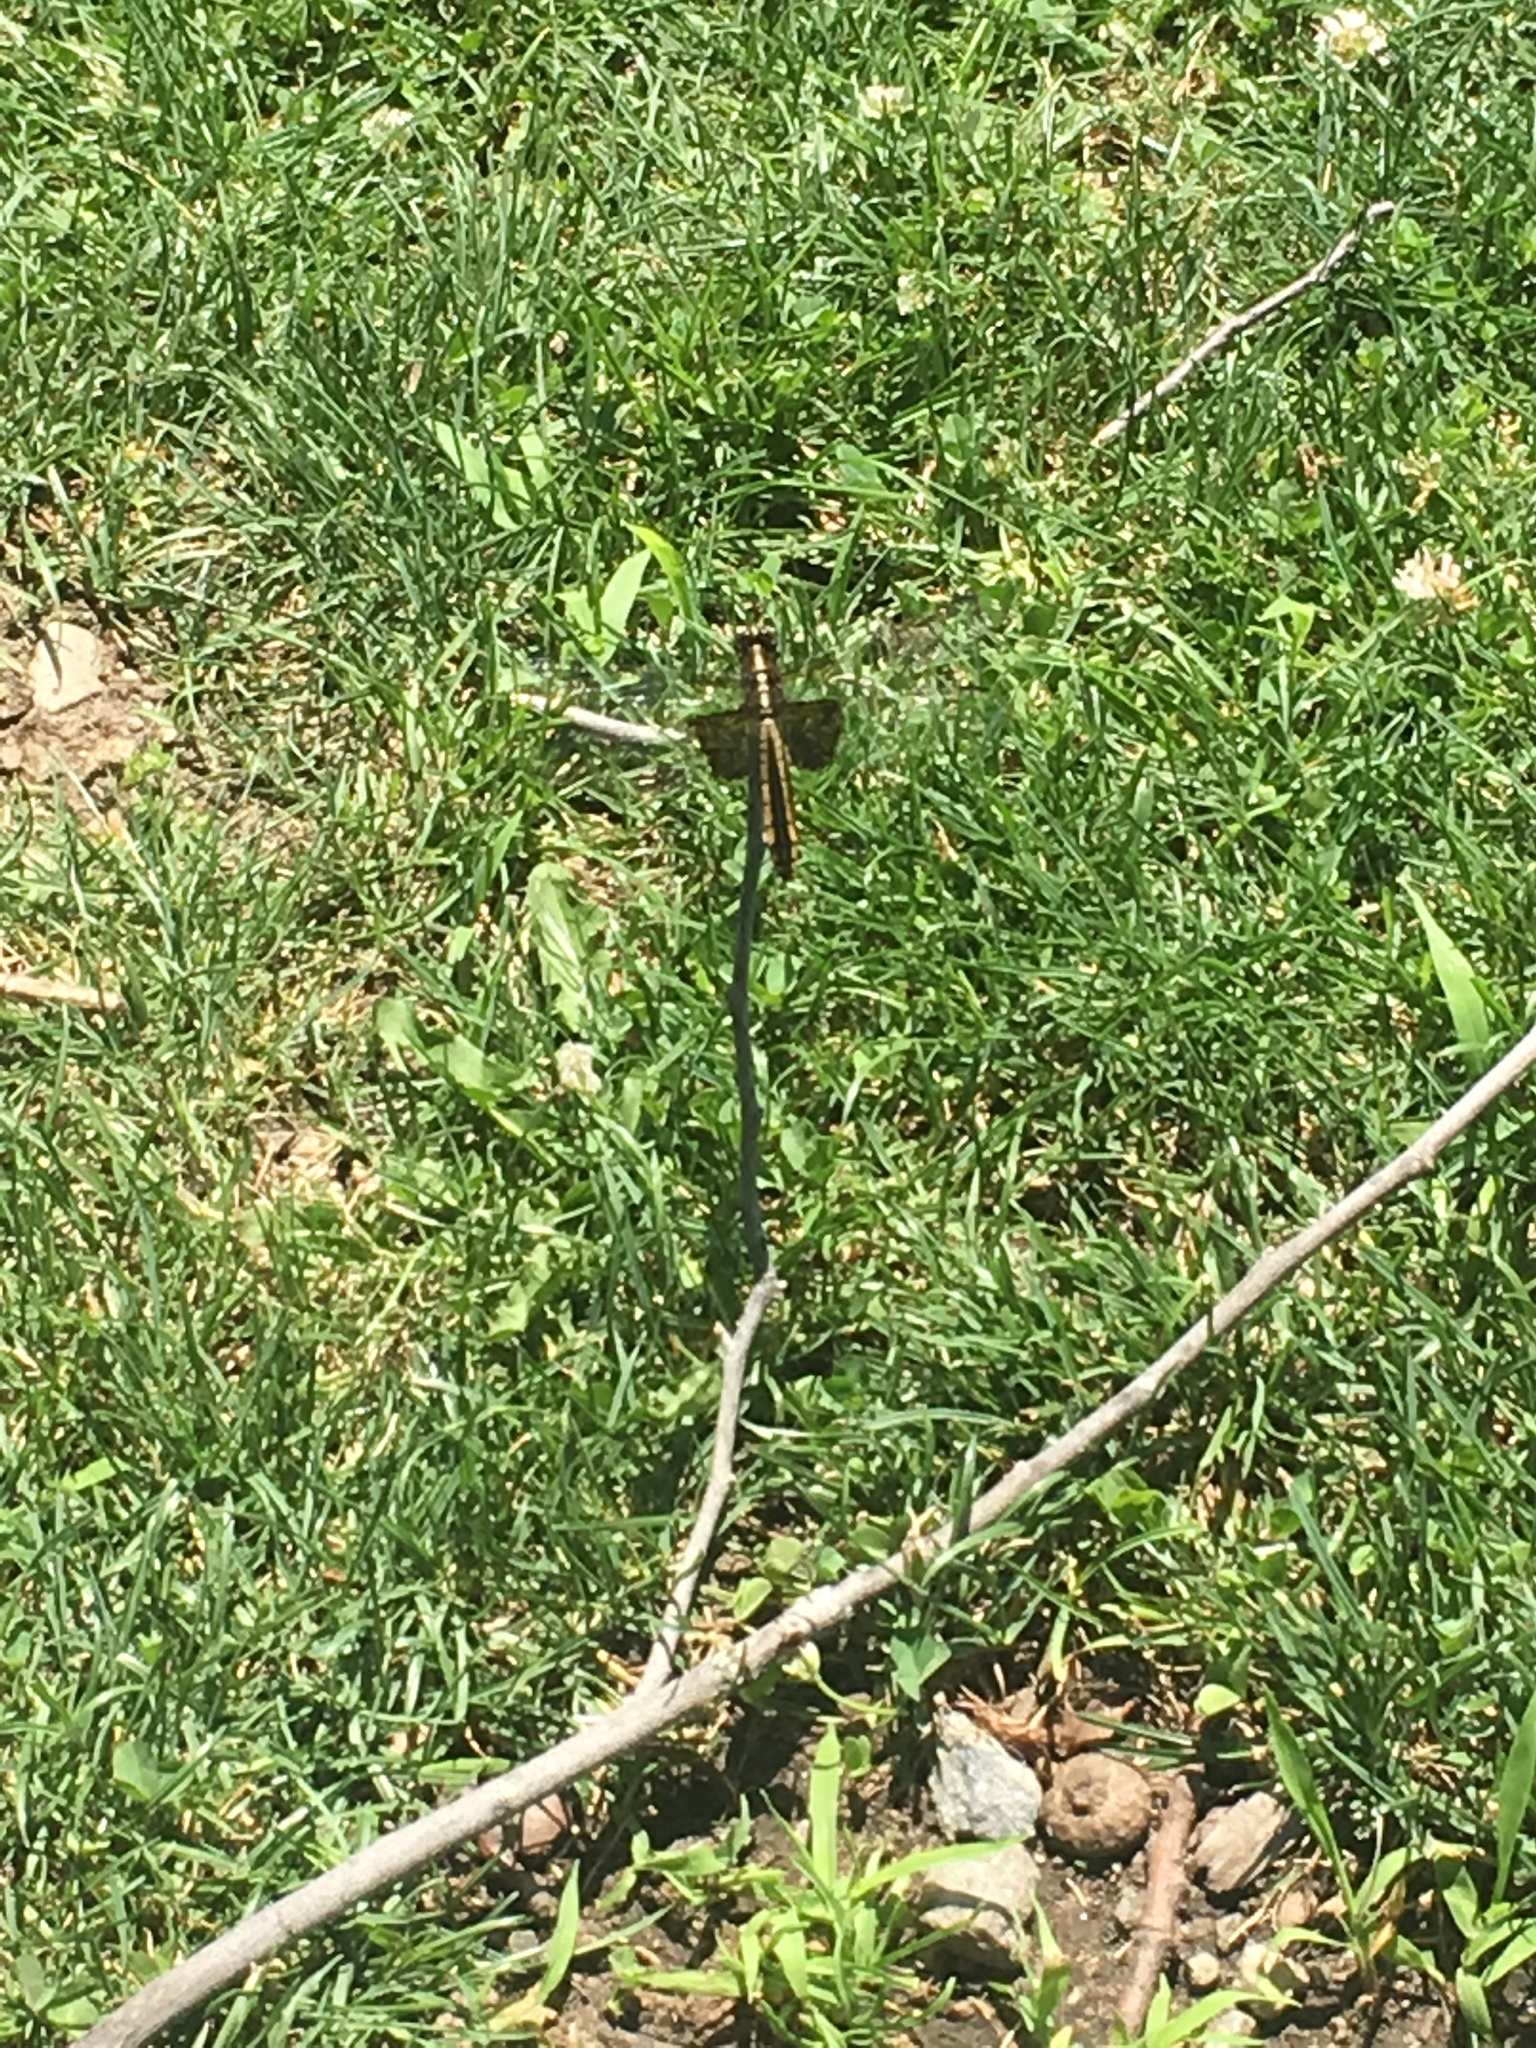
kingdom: Animalia
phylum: Arthropoda
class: Insecta
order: Odonata
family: Libellulidae
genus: Libellula
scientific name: Libellula luctuosa
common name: Widow skimmer
